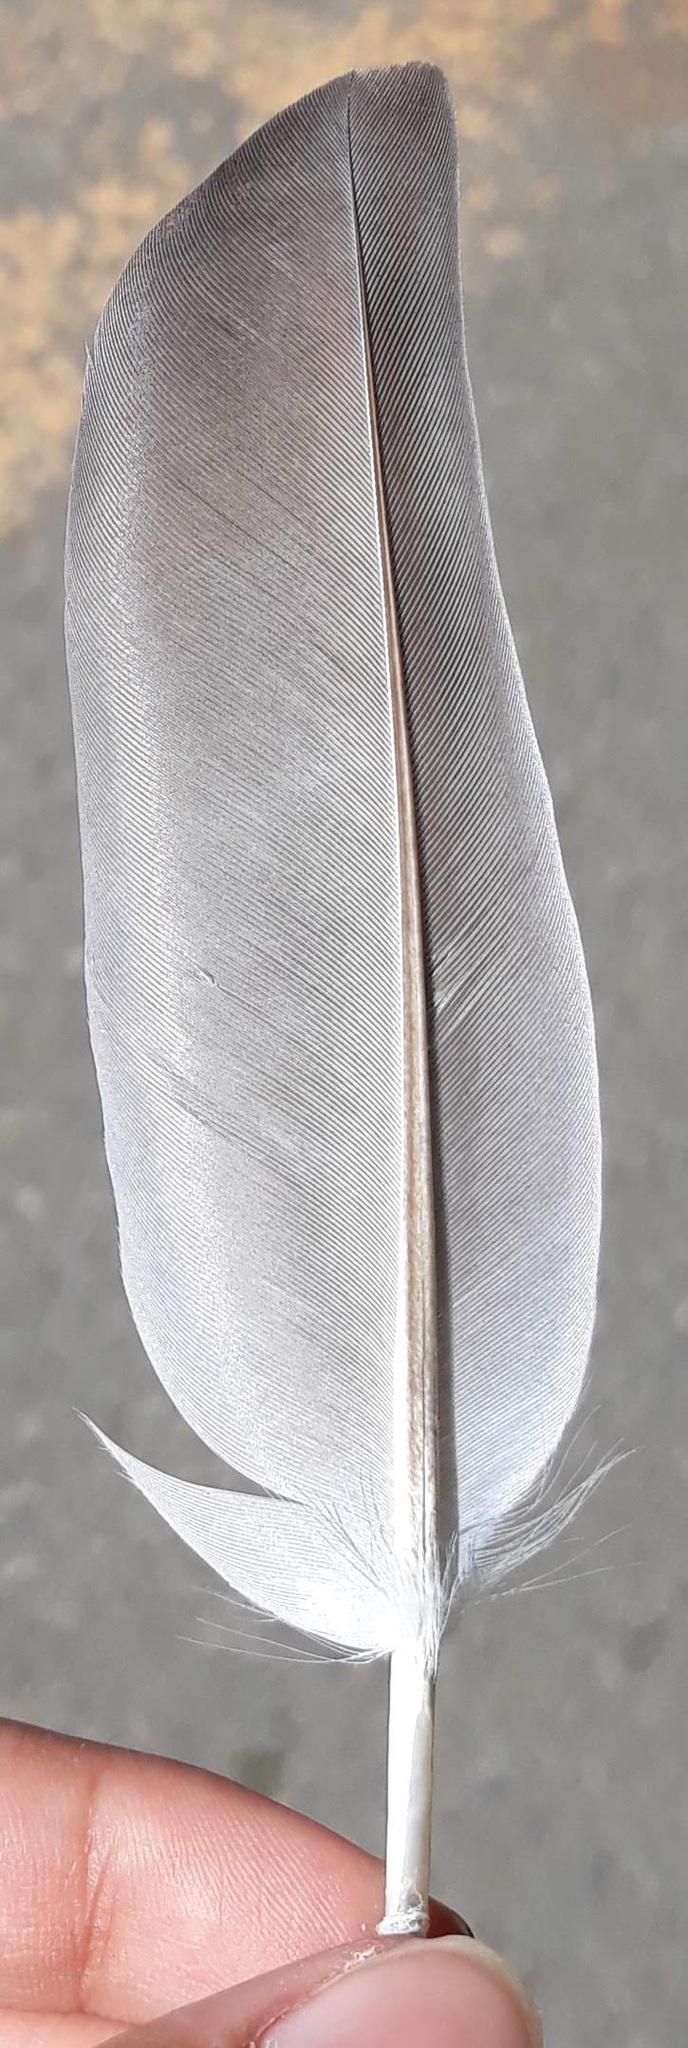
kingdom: Animalia
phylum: Chordata
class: Aves
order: Columbiformes
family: Columbidae
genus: Columba
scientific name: Columba livia
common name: Rock pigeon
